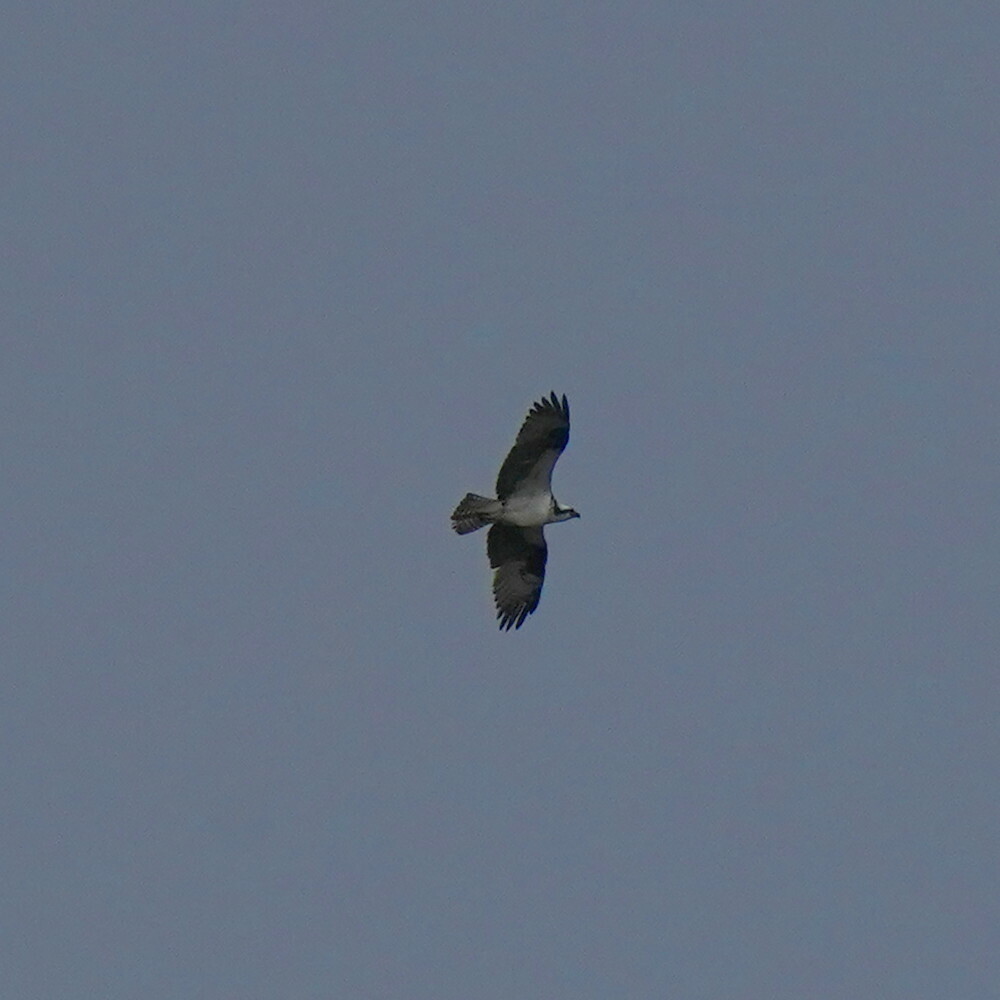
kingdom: Animalia
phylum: Chordata
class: Aves
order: Accipitriformes
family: Pandionidae
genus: Pandion
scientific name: Pandion haliaetus
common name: Osprey
